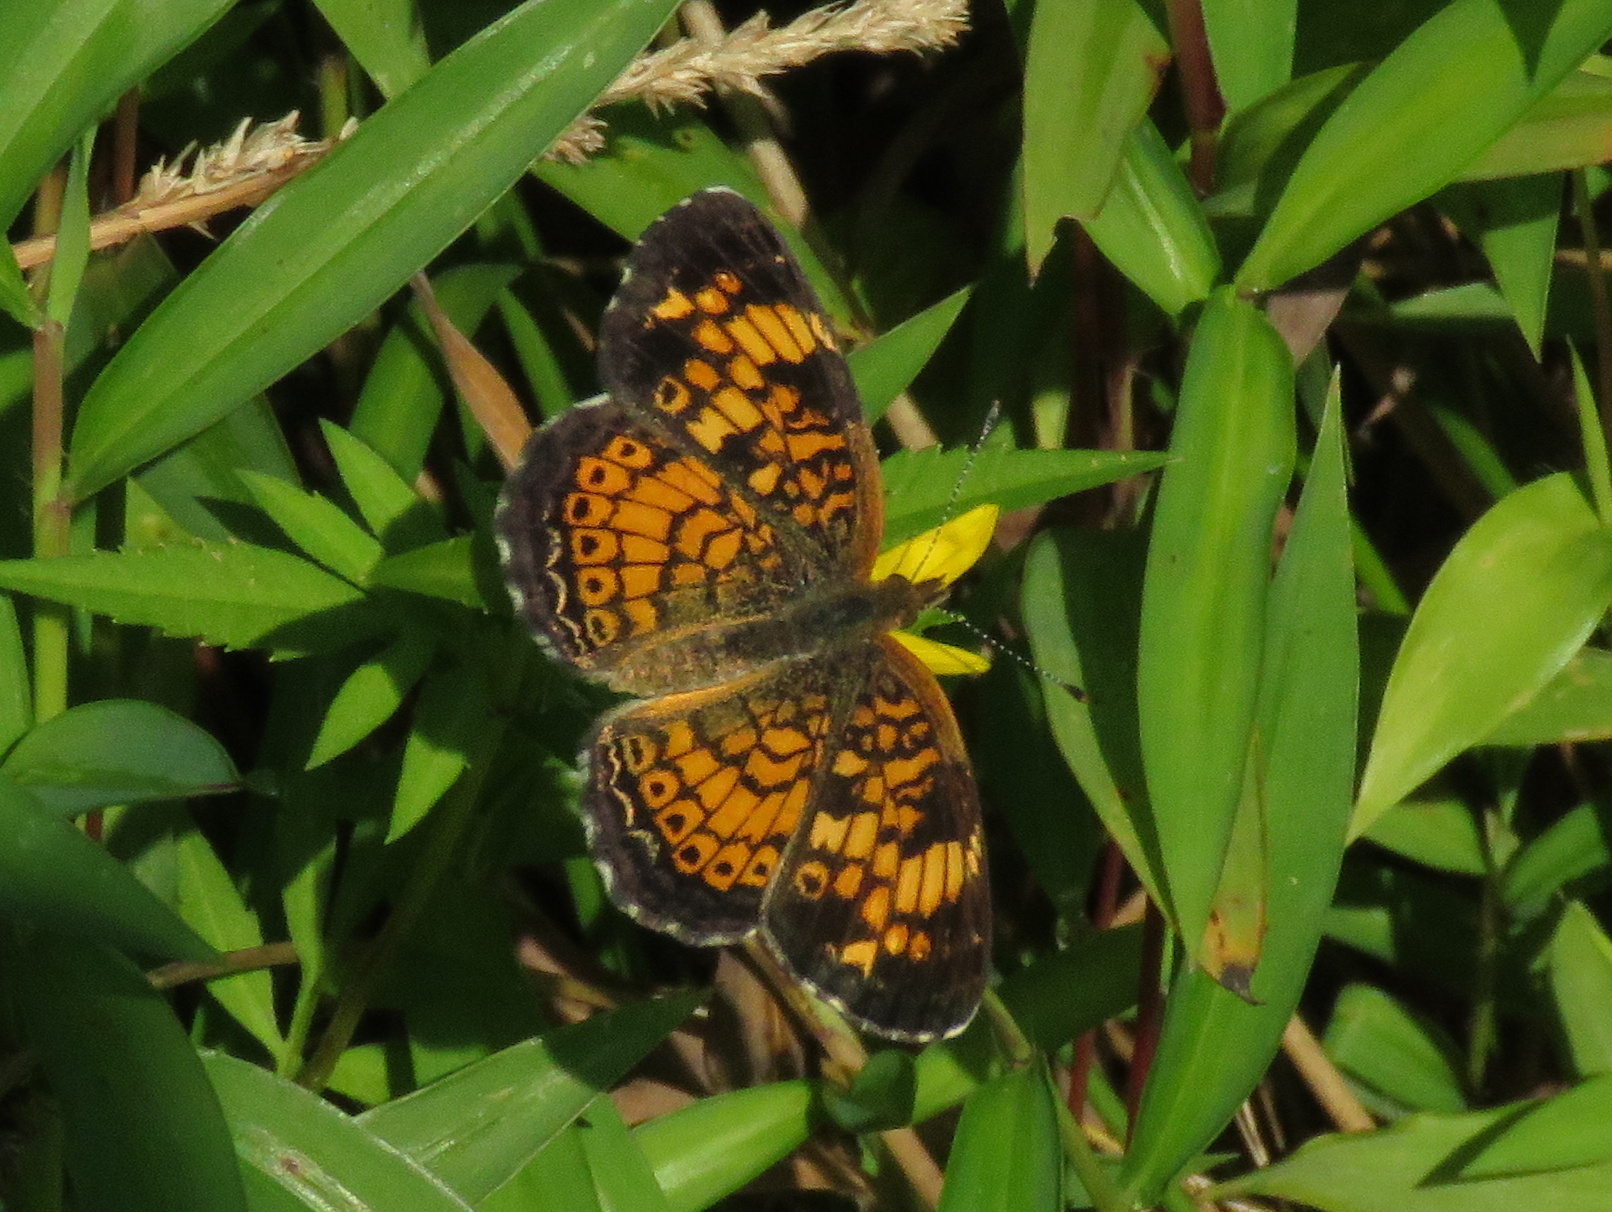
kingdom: Animalia
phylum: Arthropoda
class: Insecta
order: Lepidoptera
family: Nymphalidae
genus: Phyciodes
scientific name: Phyciodes tharos
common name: Pearl crescent
